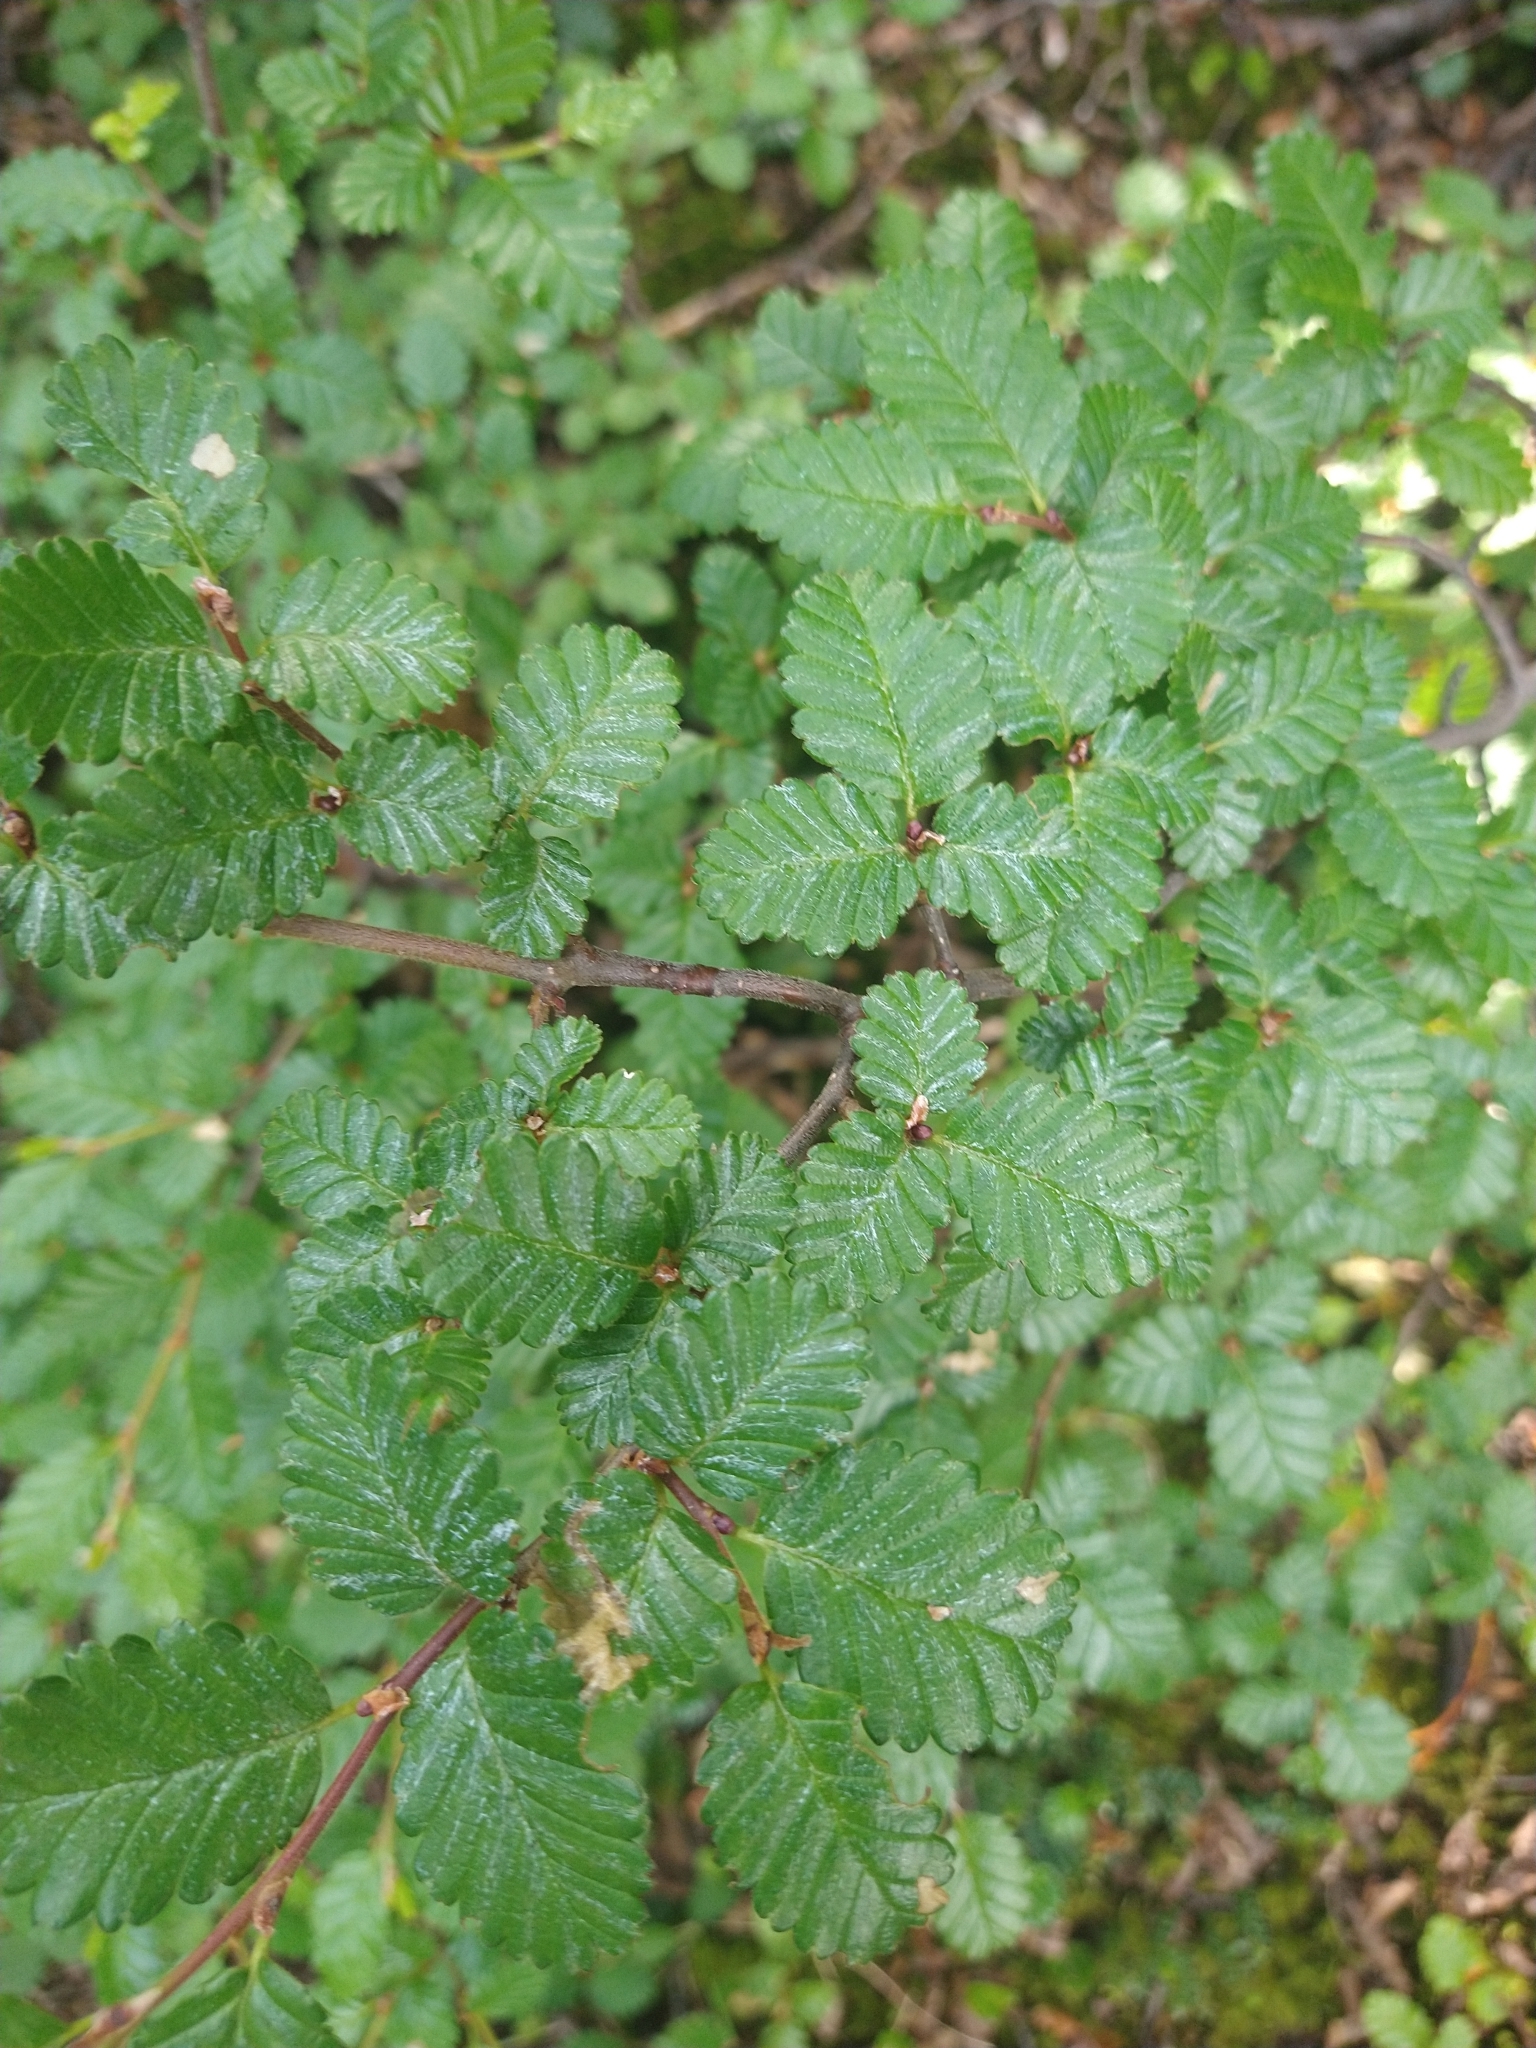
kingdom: Plantae
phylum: Tracheophyta
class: Magnoliopsida
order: Fagales
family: Nothofagaceae
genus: Nothofagus
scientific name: Nothofagus pumilio
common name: Lenga beech
